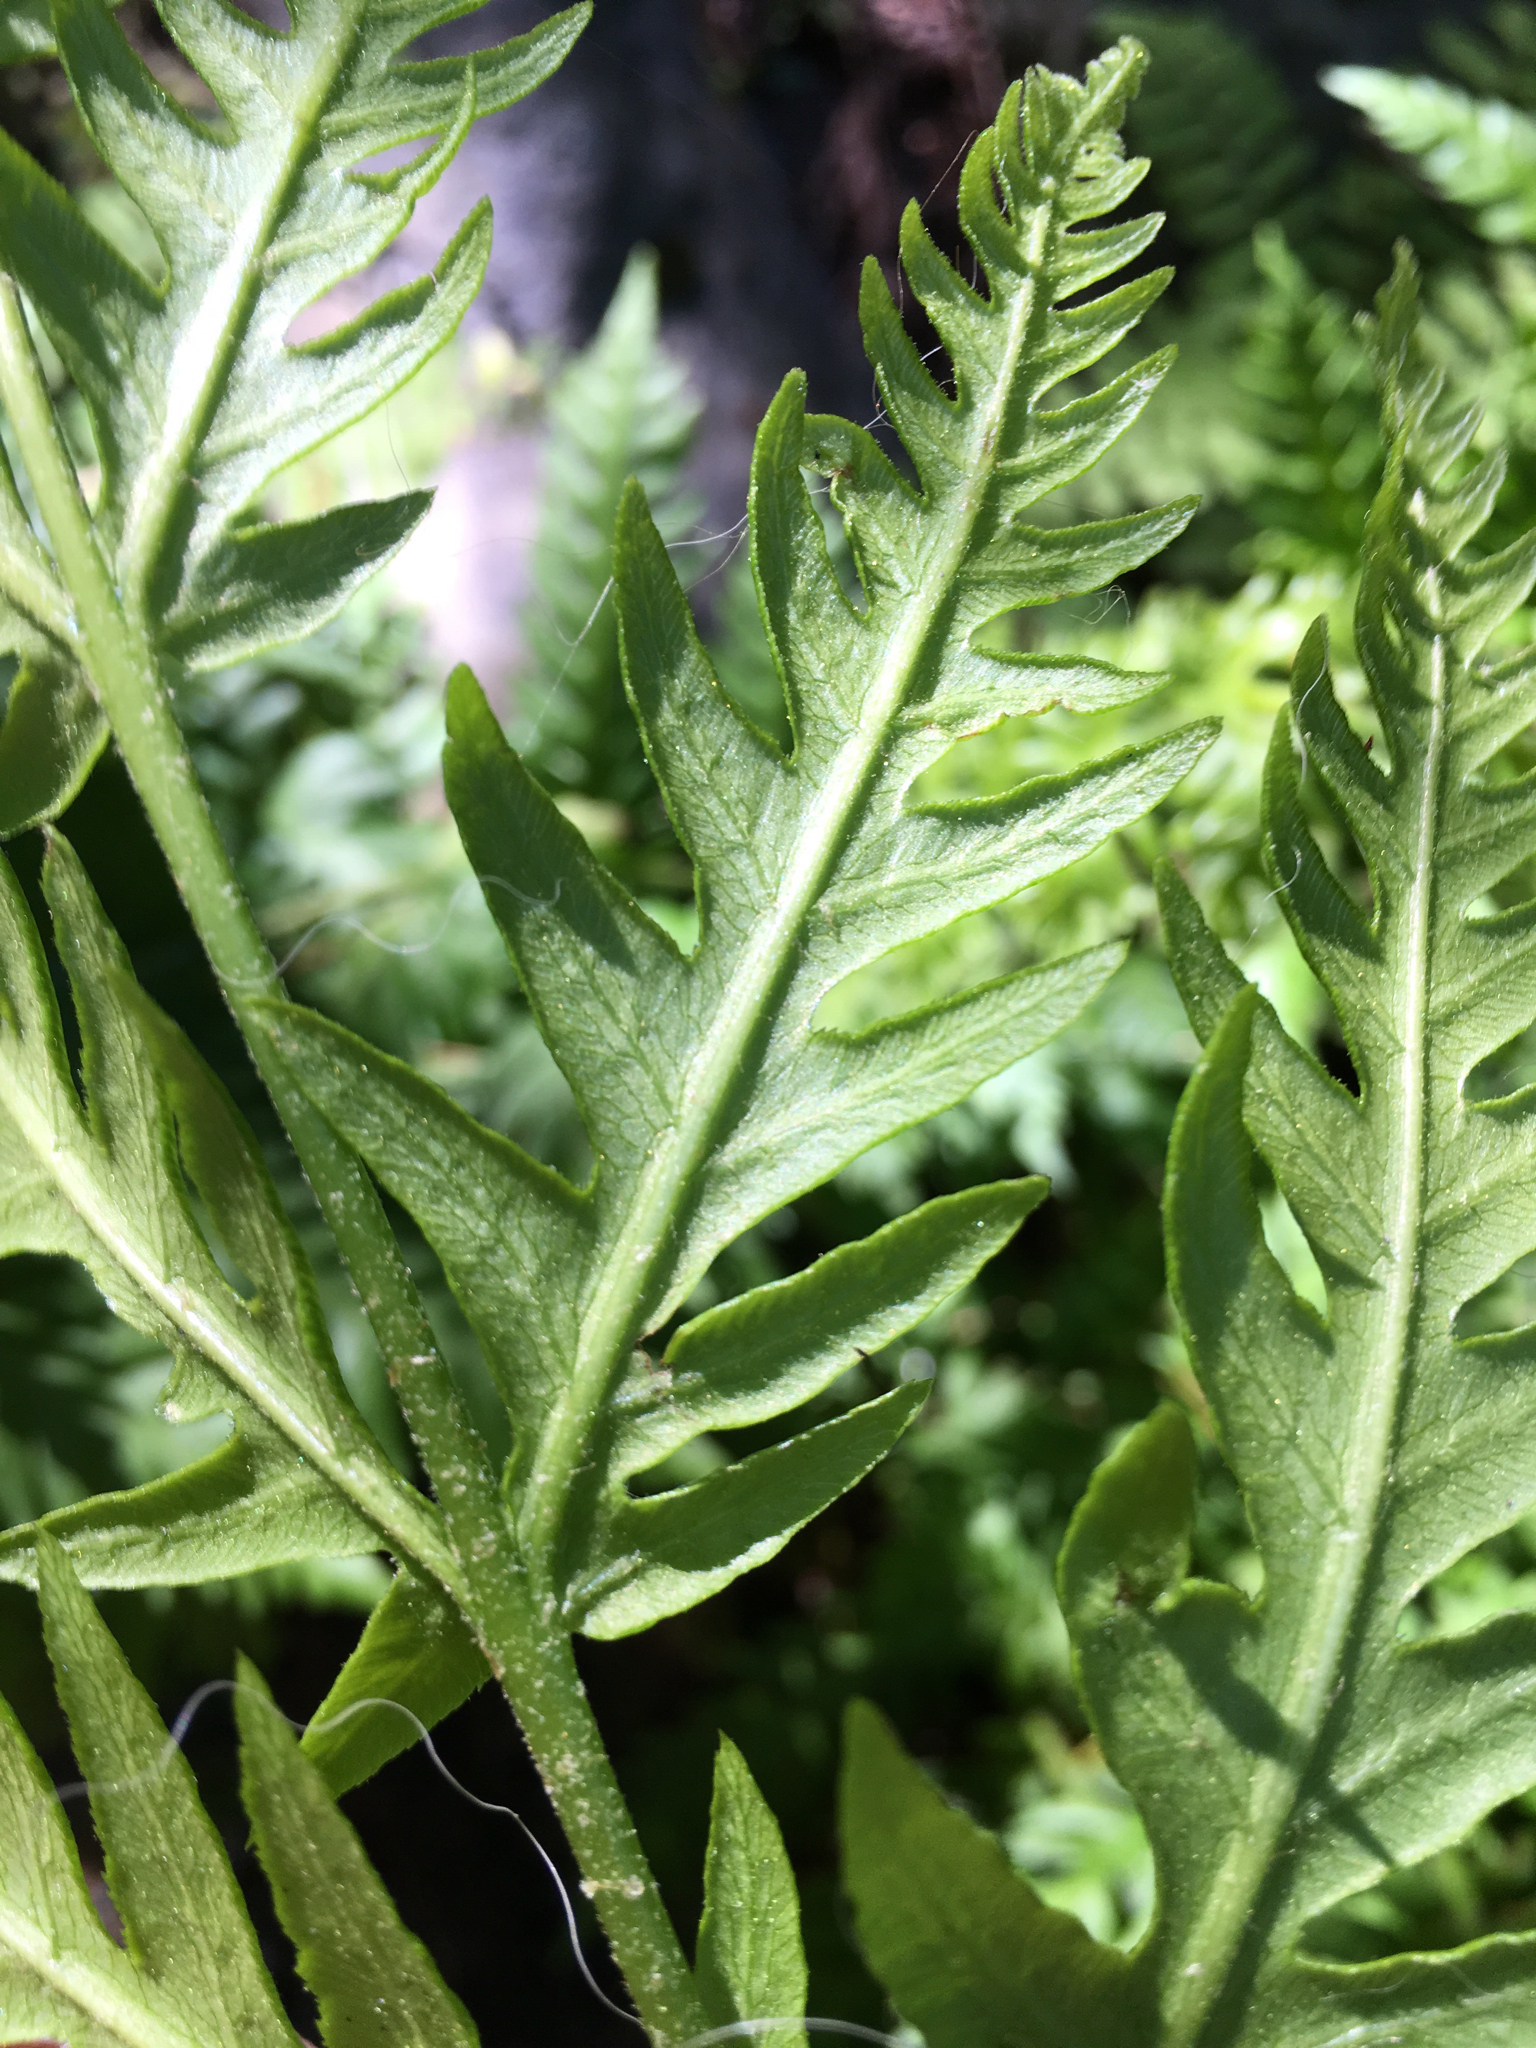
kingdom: Plantae
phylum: Tracheophyta
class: Polypodiopsida
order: Polypodiales
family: Blechnaceae
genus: Woodwardia
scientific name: Woodwardia fimbriata
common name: Giant chain fern
